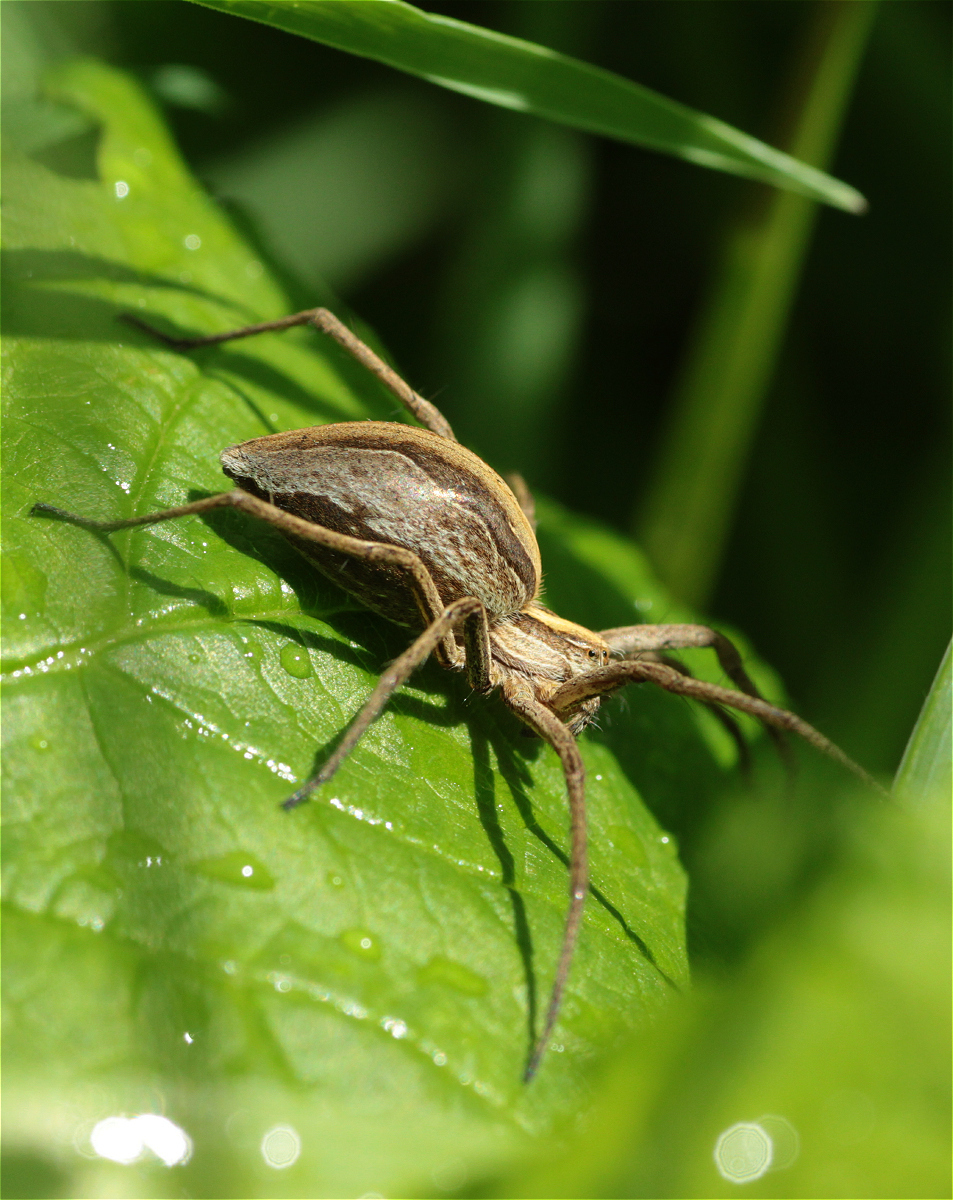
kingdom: Animalia
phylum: Arthropoda
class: Arachnida
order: Araneae
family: Pisauridae
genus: Pisaura
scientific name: Pisaura mirabilis
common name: Tent spider
